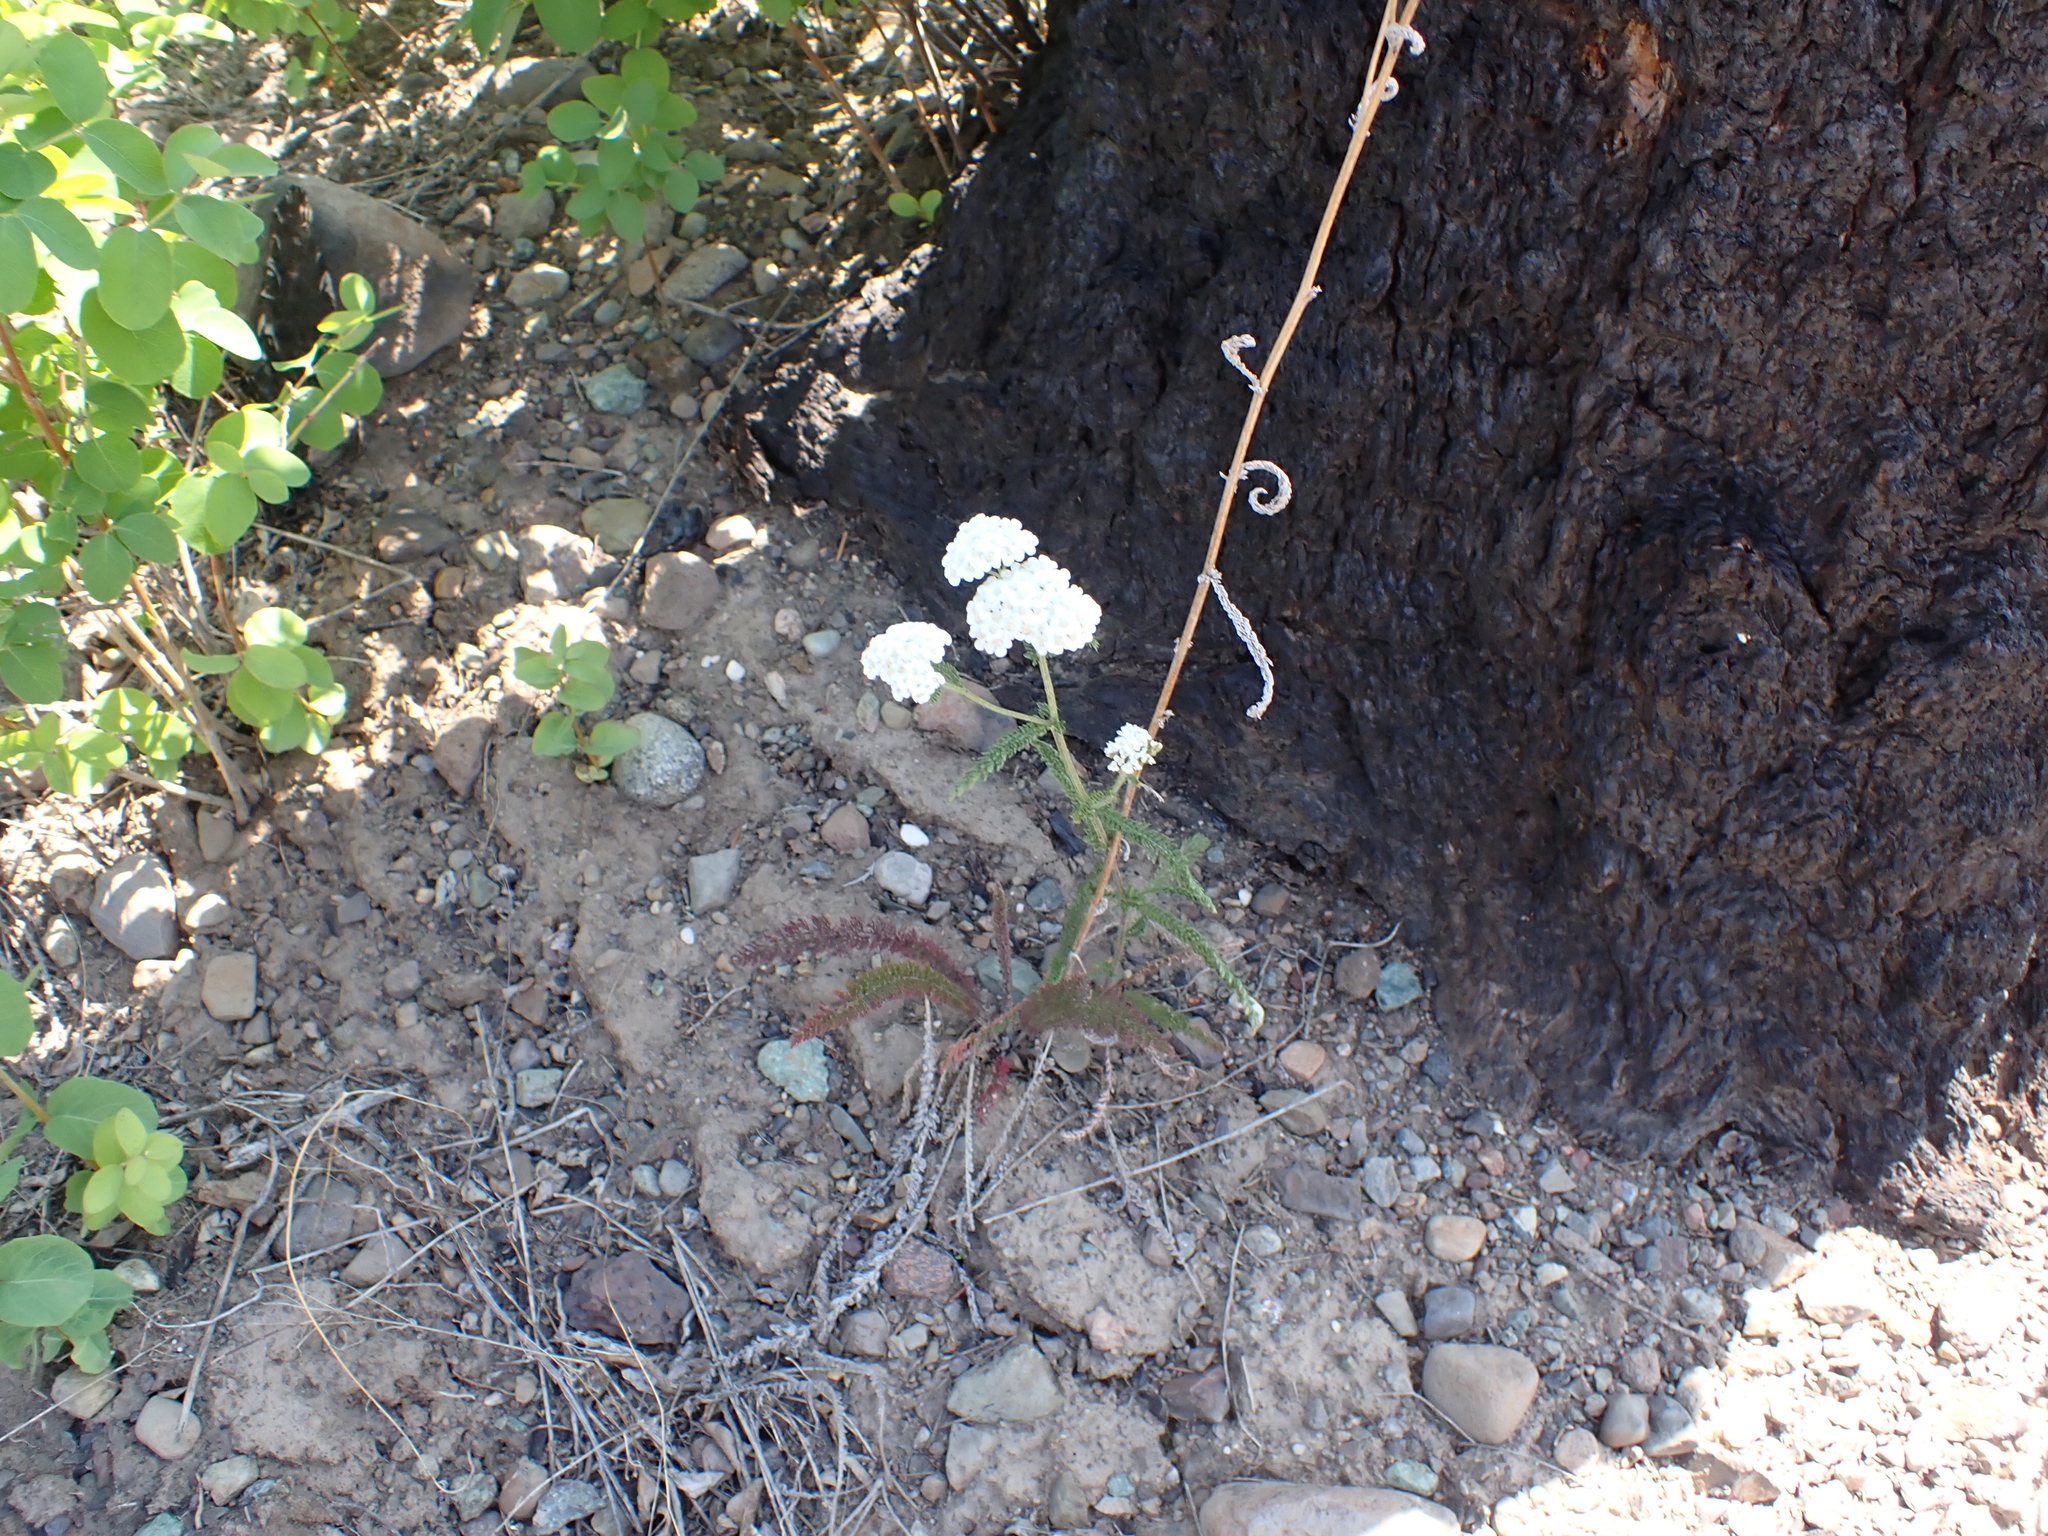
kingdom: Plantae
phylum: Tracheophyta
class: Magnoliopsida
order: Asterales
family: Asteraceae
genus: Achillea
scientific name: Achillea millefolium
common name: Yarrow
